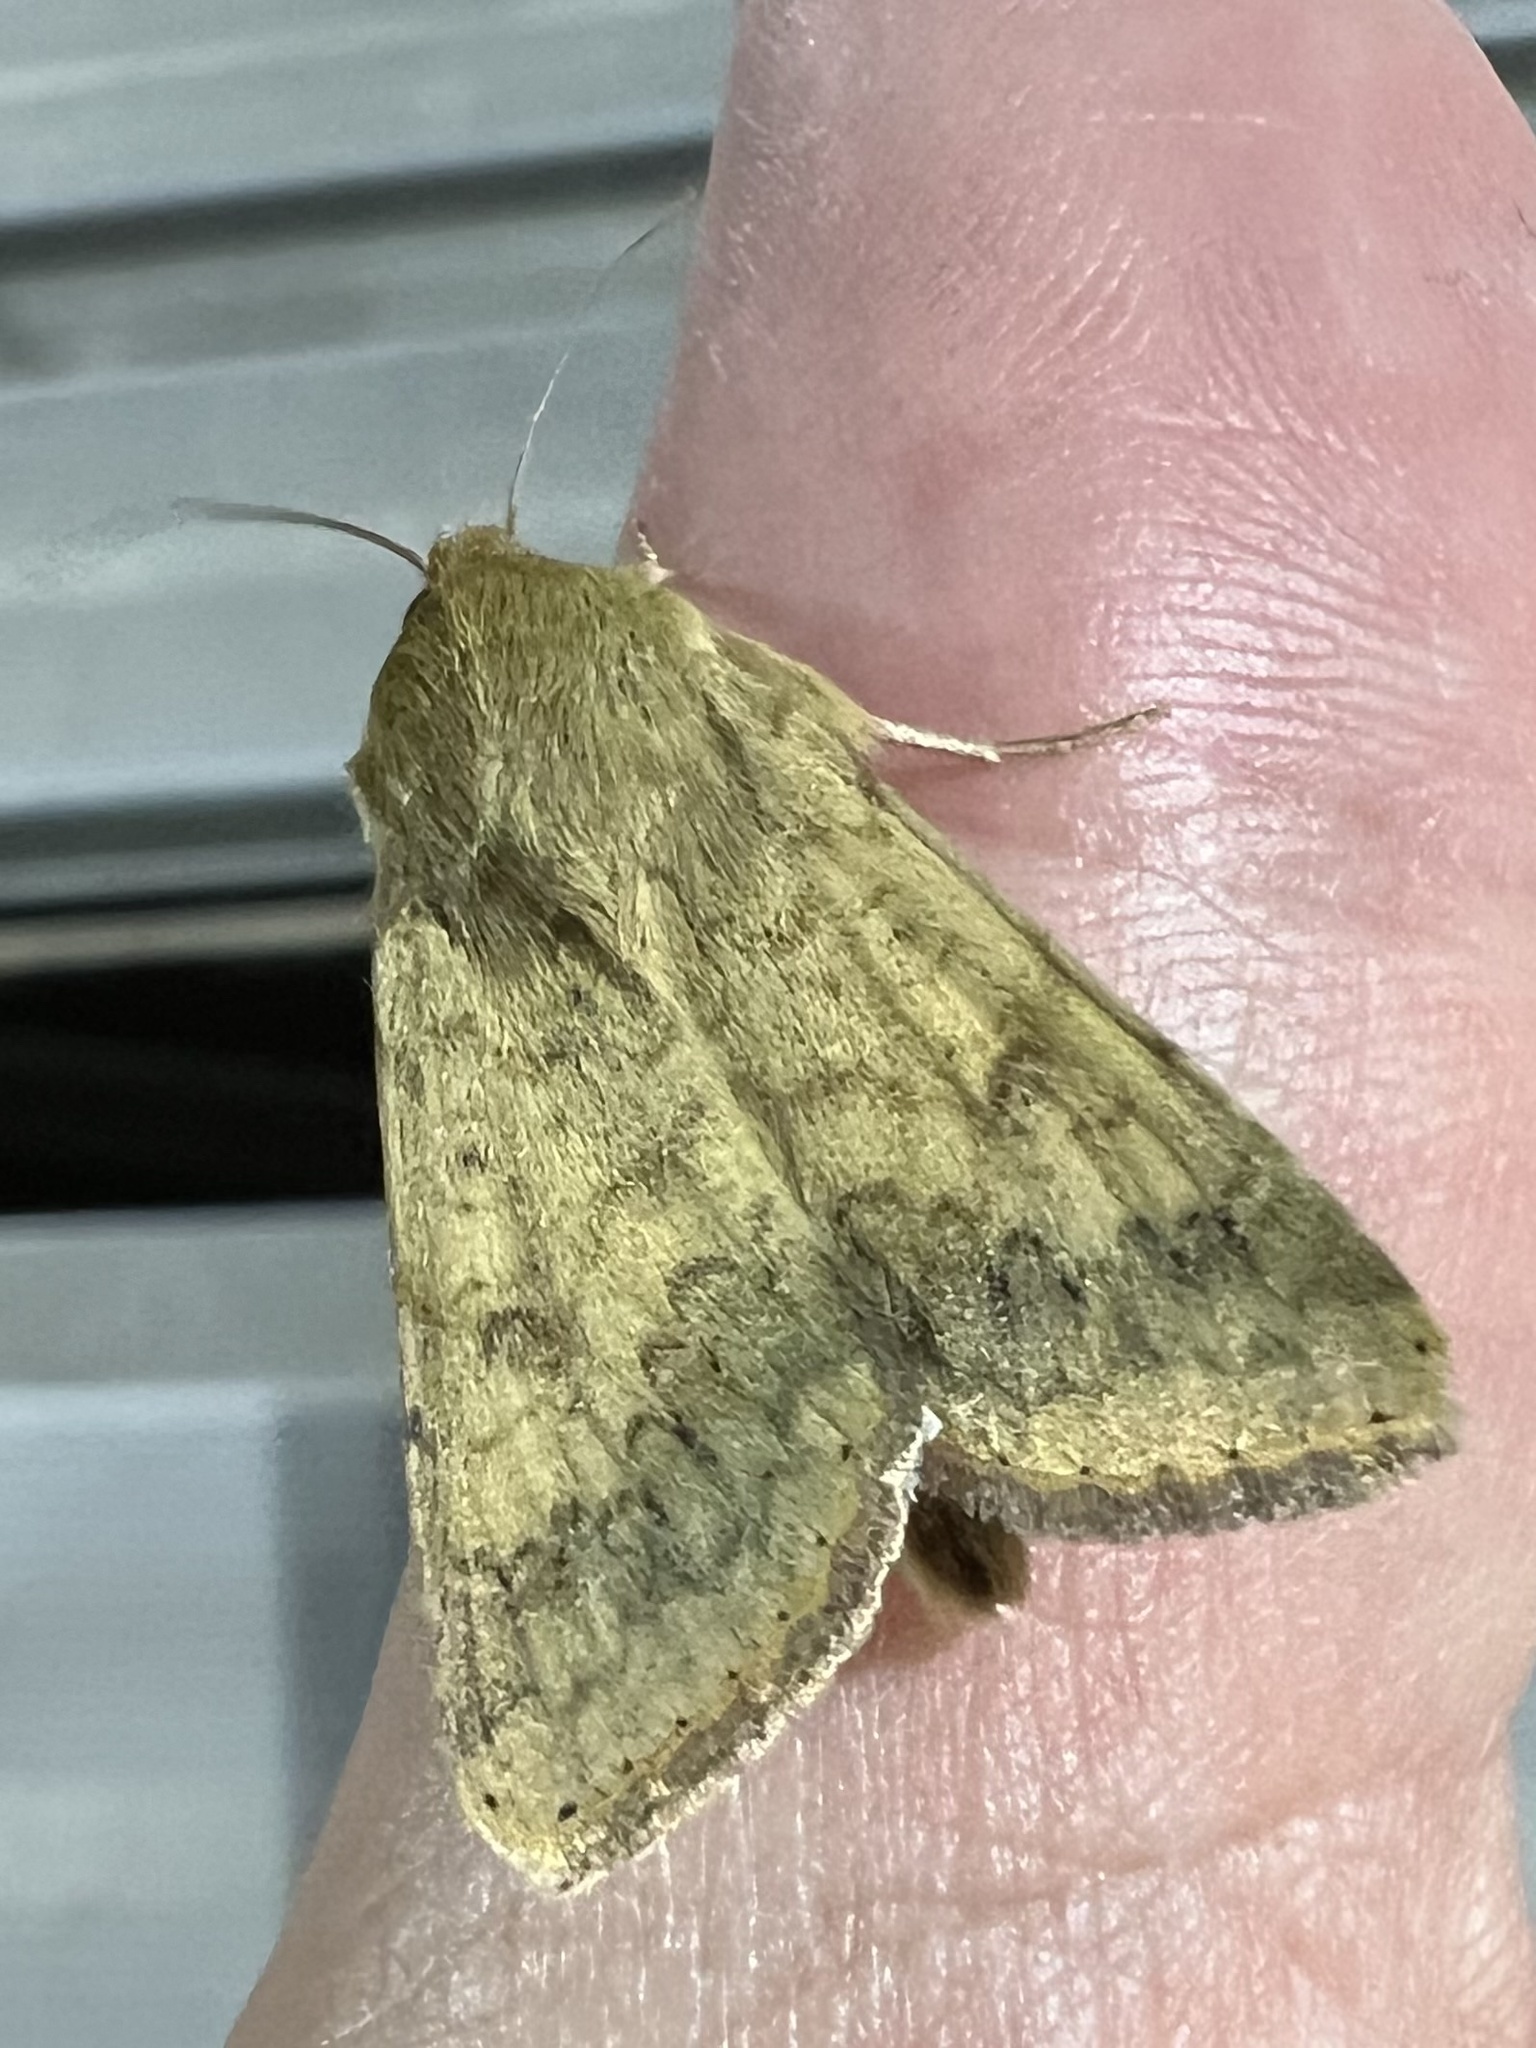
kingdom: Animalia
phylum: Arthropoda
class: Insecta
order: Lepidoptera
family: Noctuidae
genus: Helicoverpa
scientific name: Helicoverpa zea
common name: Bollworm
